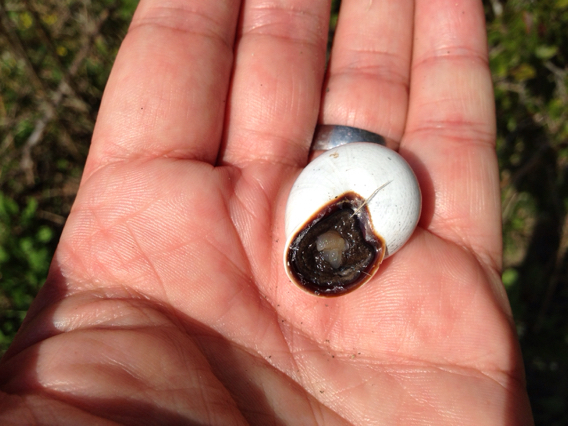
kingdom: Animalia
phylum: Mollusca
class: Gastropoda
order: Stylommatophora
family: Helicidae
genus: Otala
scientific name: Otala lactea
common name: Milk snail
